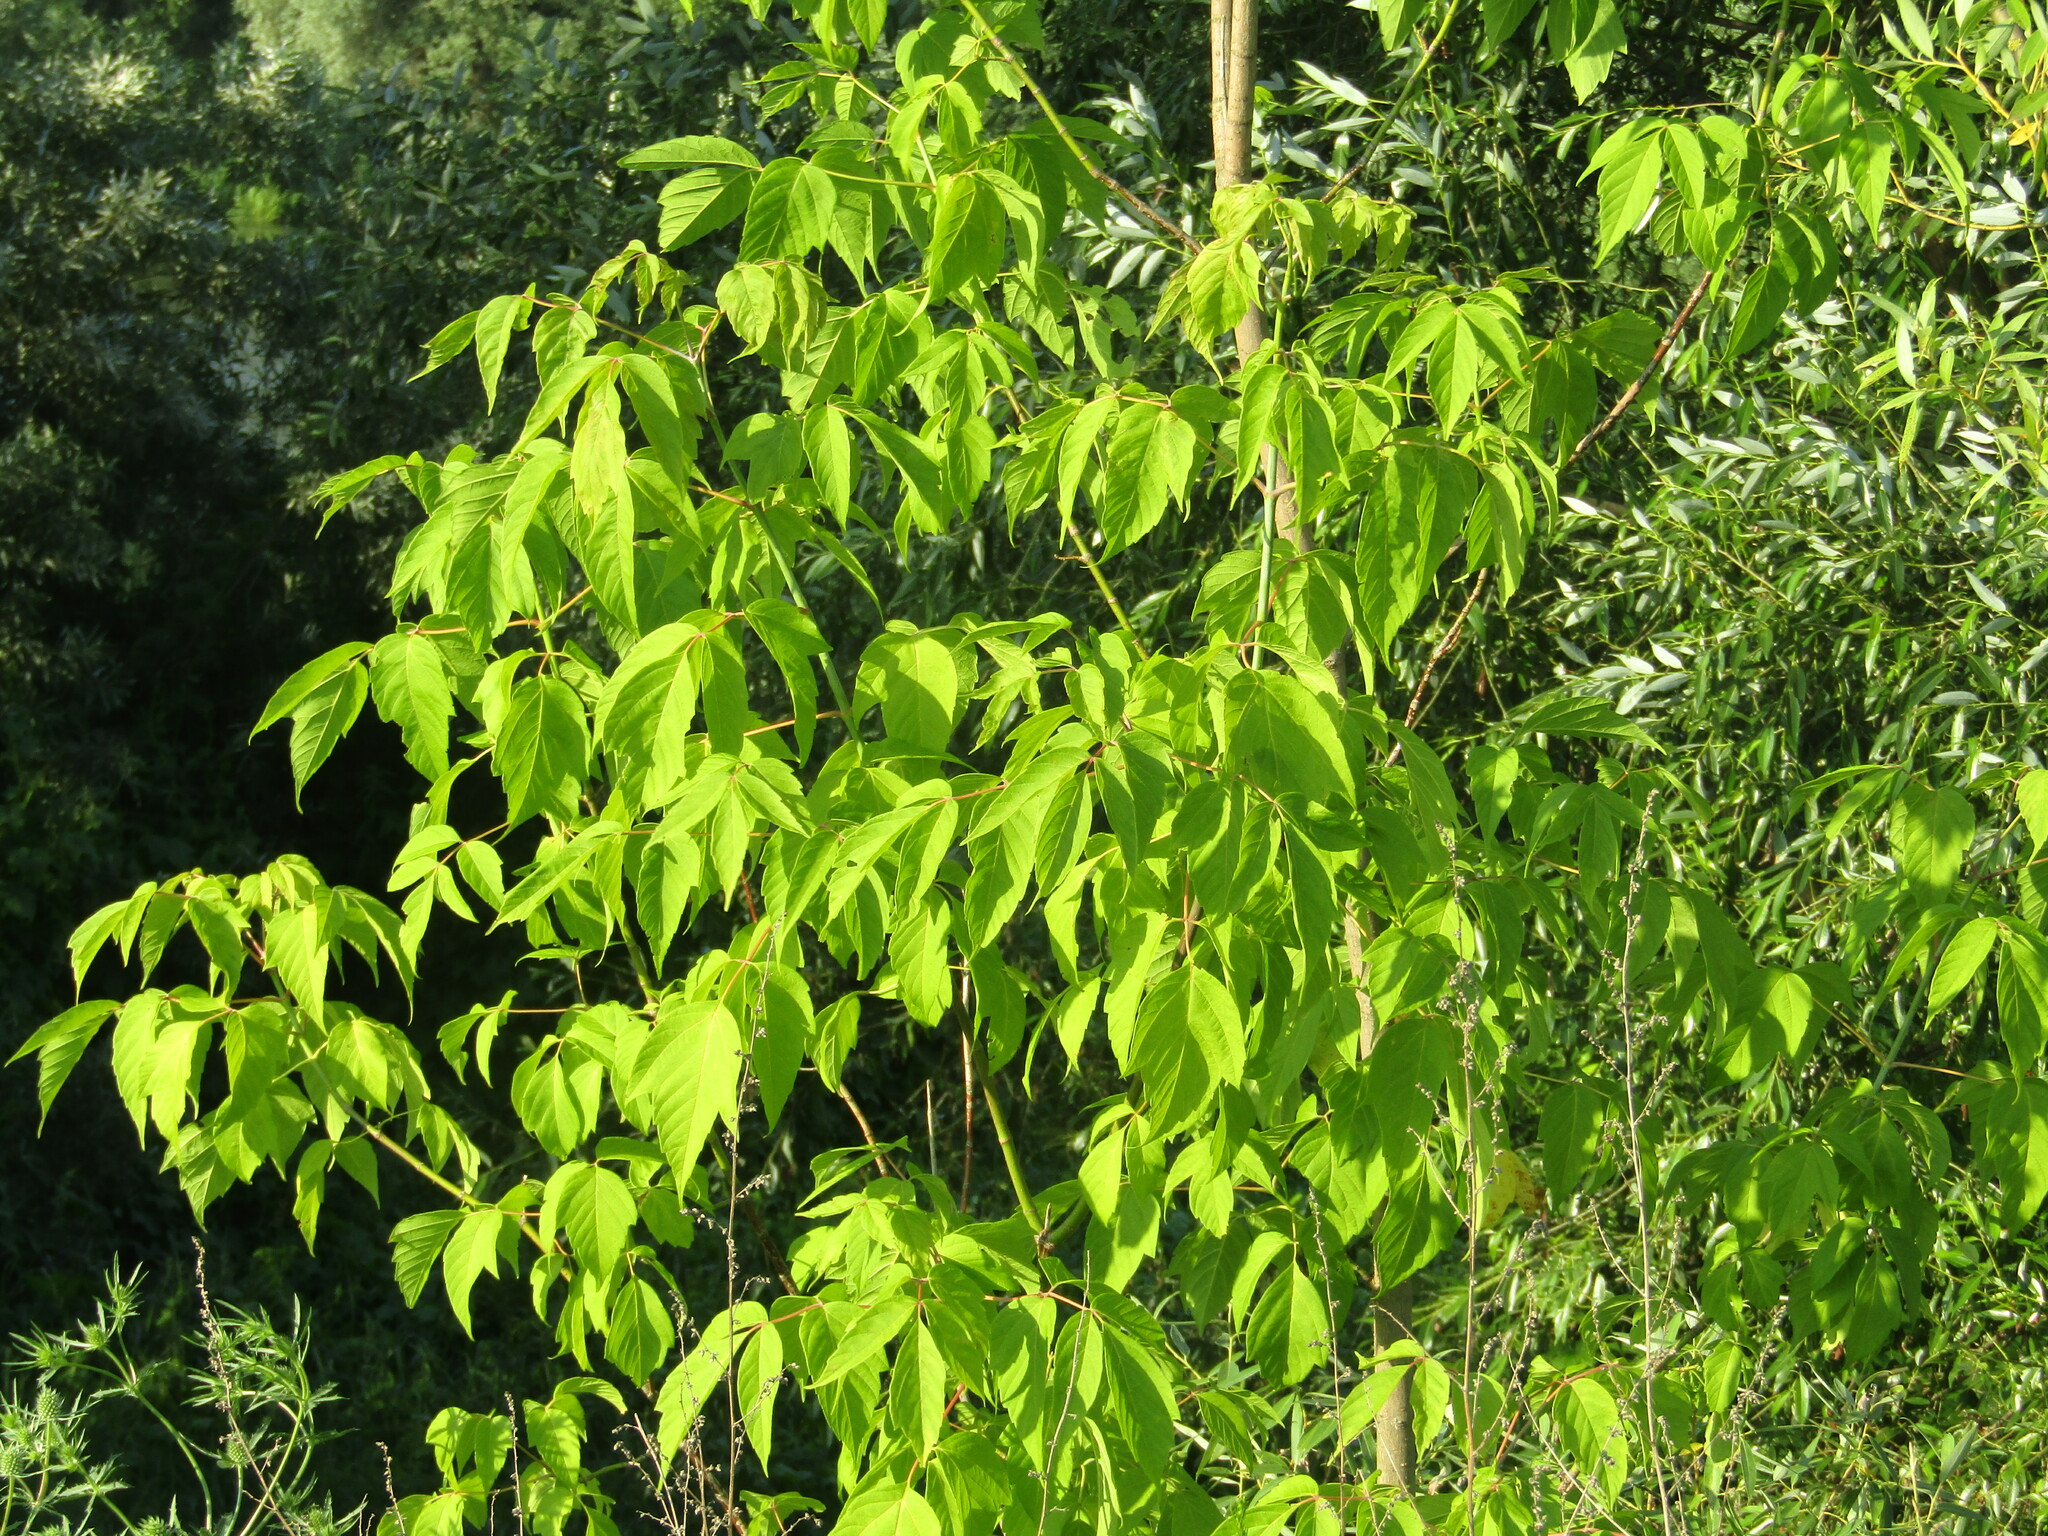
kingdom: Plantae
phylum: Tracheophyta
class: Magnoliopsida
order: Sapindales
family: Sapindaceae
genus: Acer
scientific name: Acer negundo
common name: Ashleaf maple
